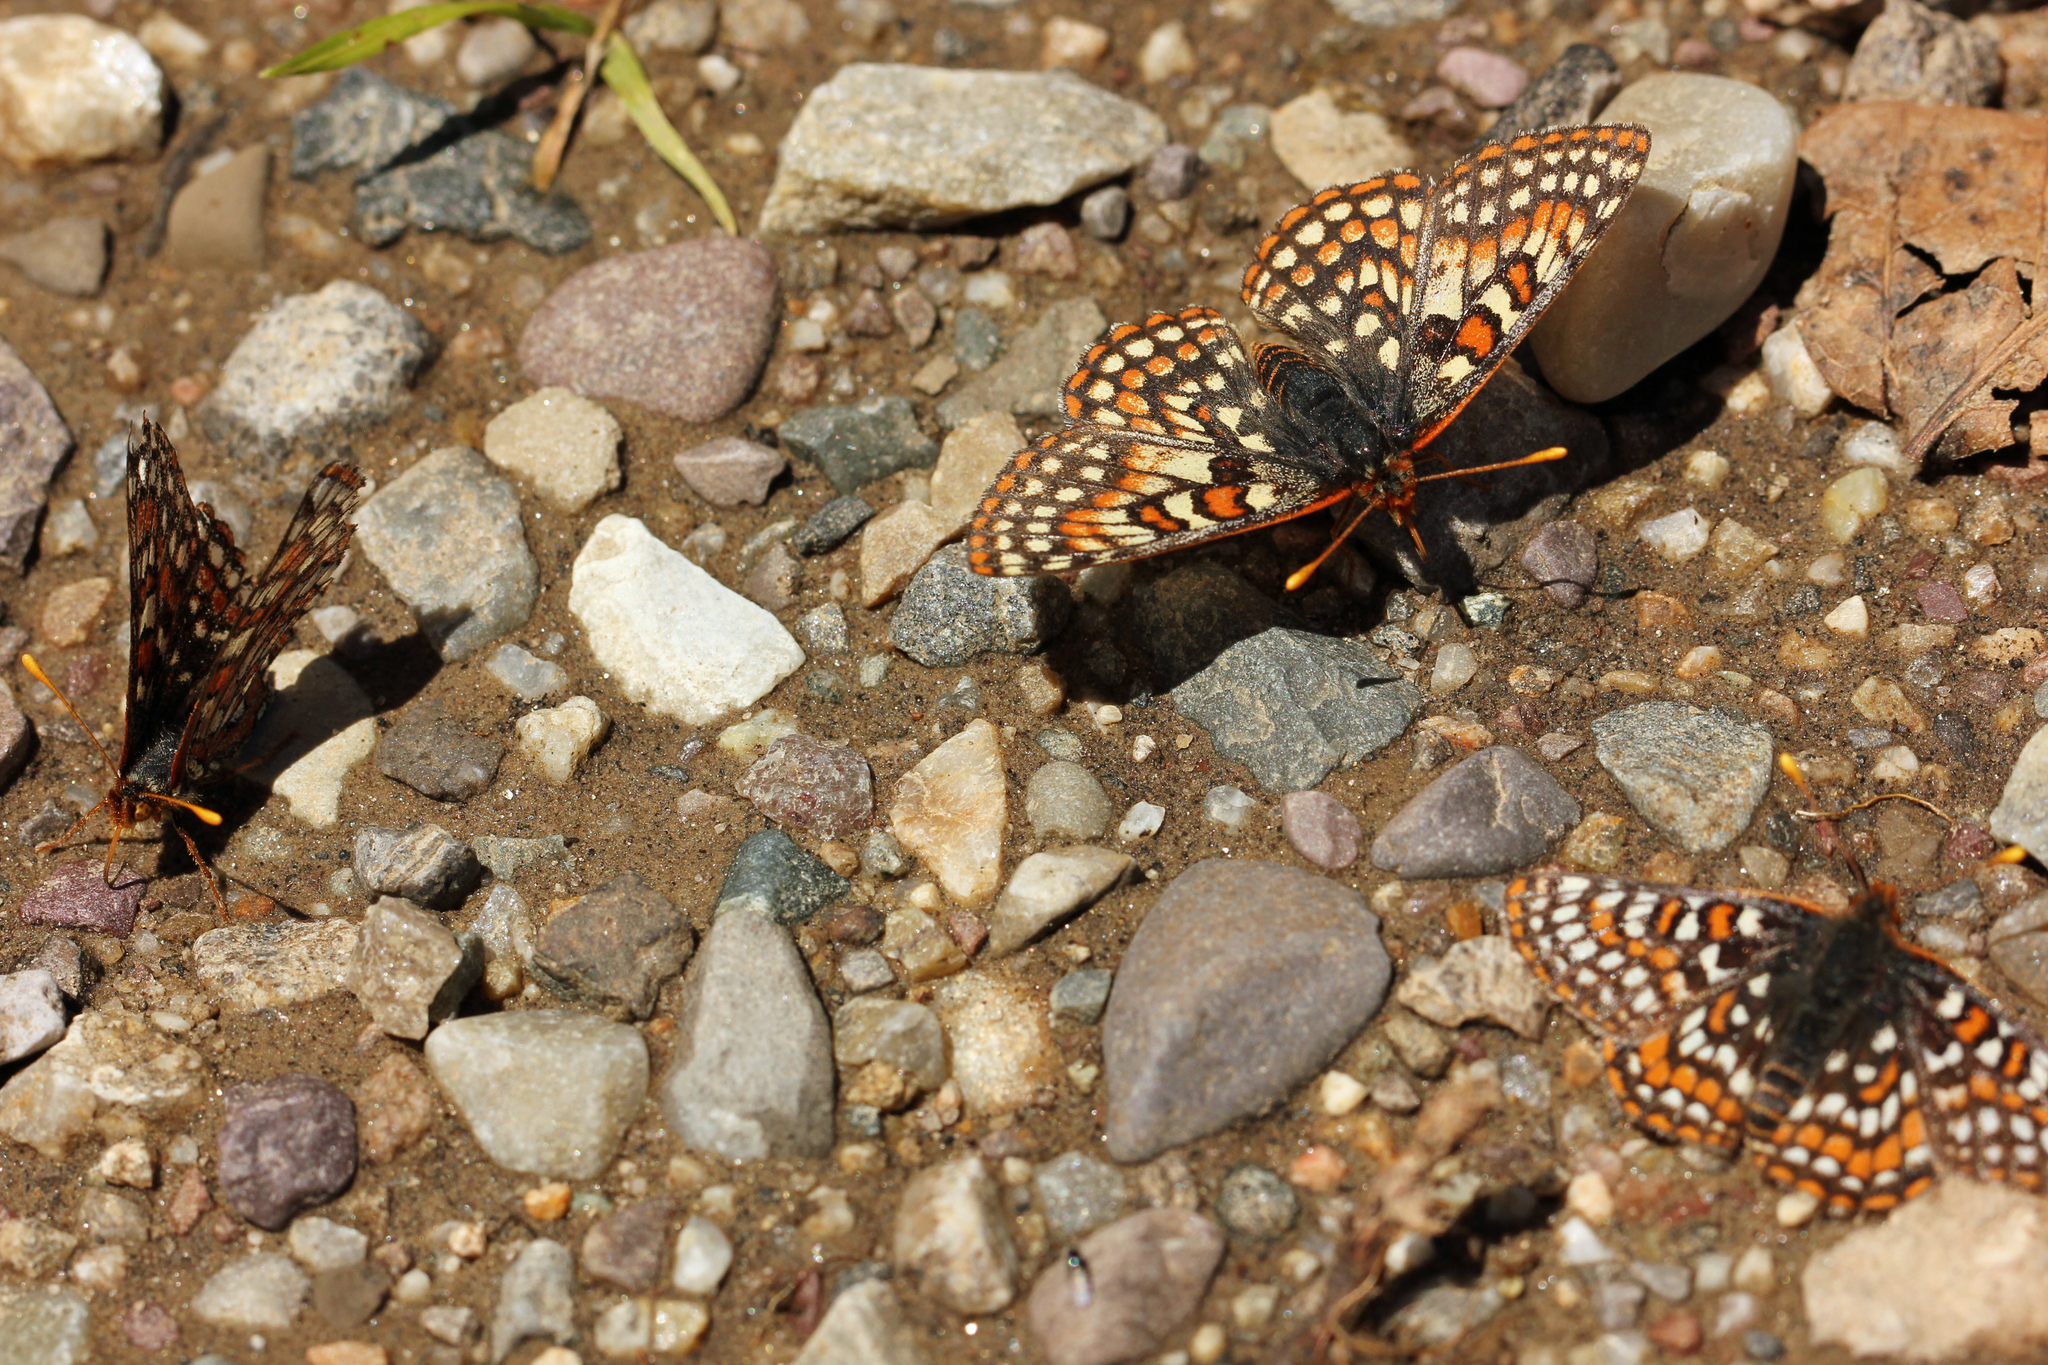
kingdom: Animalia
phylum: Arthropoda
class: Insecta
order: Lepidoptera
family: Nymphalidae
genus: Occidryas
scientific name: Occidryas editha
